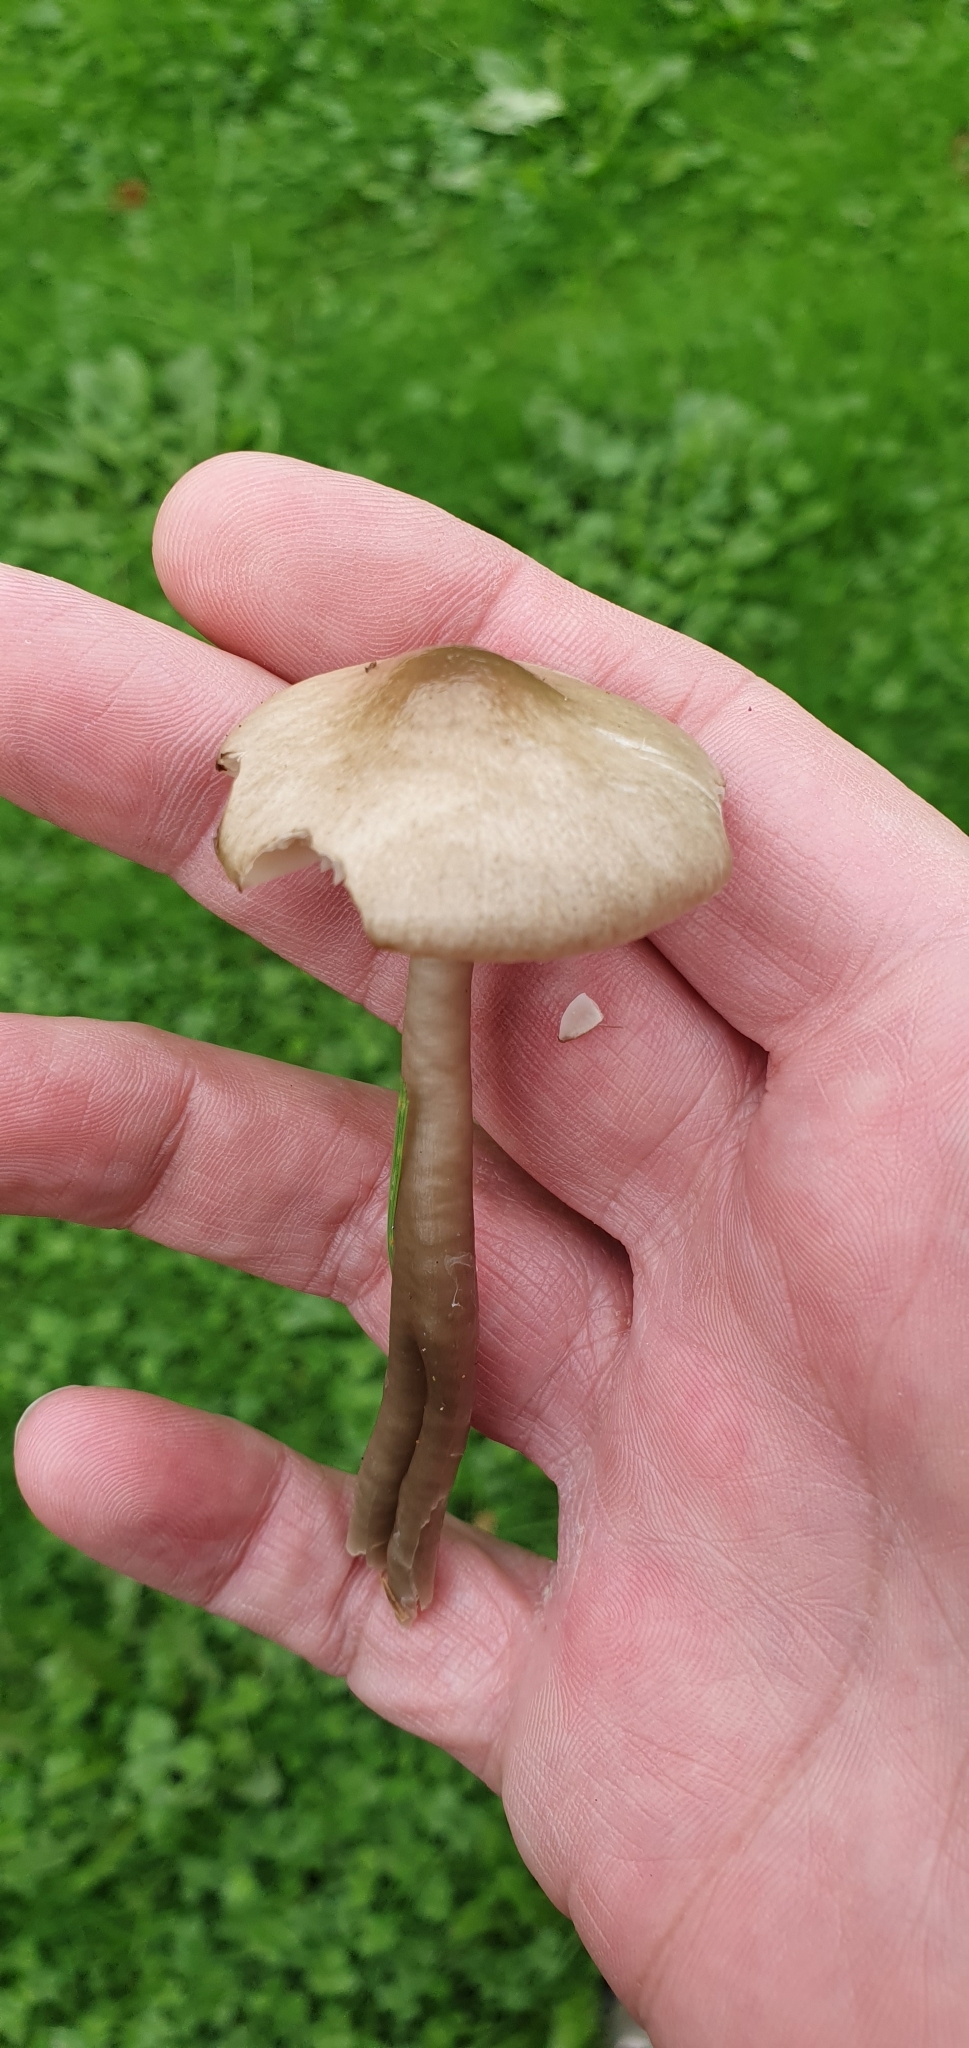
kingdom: Fungi
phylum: Basidiomycota
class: Agaricomycetes
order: Agaricales
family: Hygrophoraceae
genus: Gliophorus
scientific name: Gliophorus irrigatus
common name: Slimy waxcap
